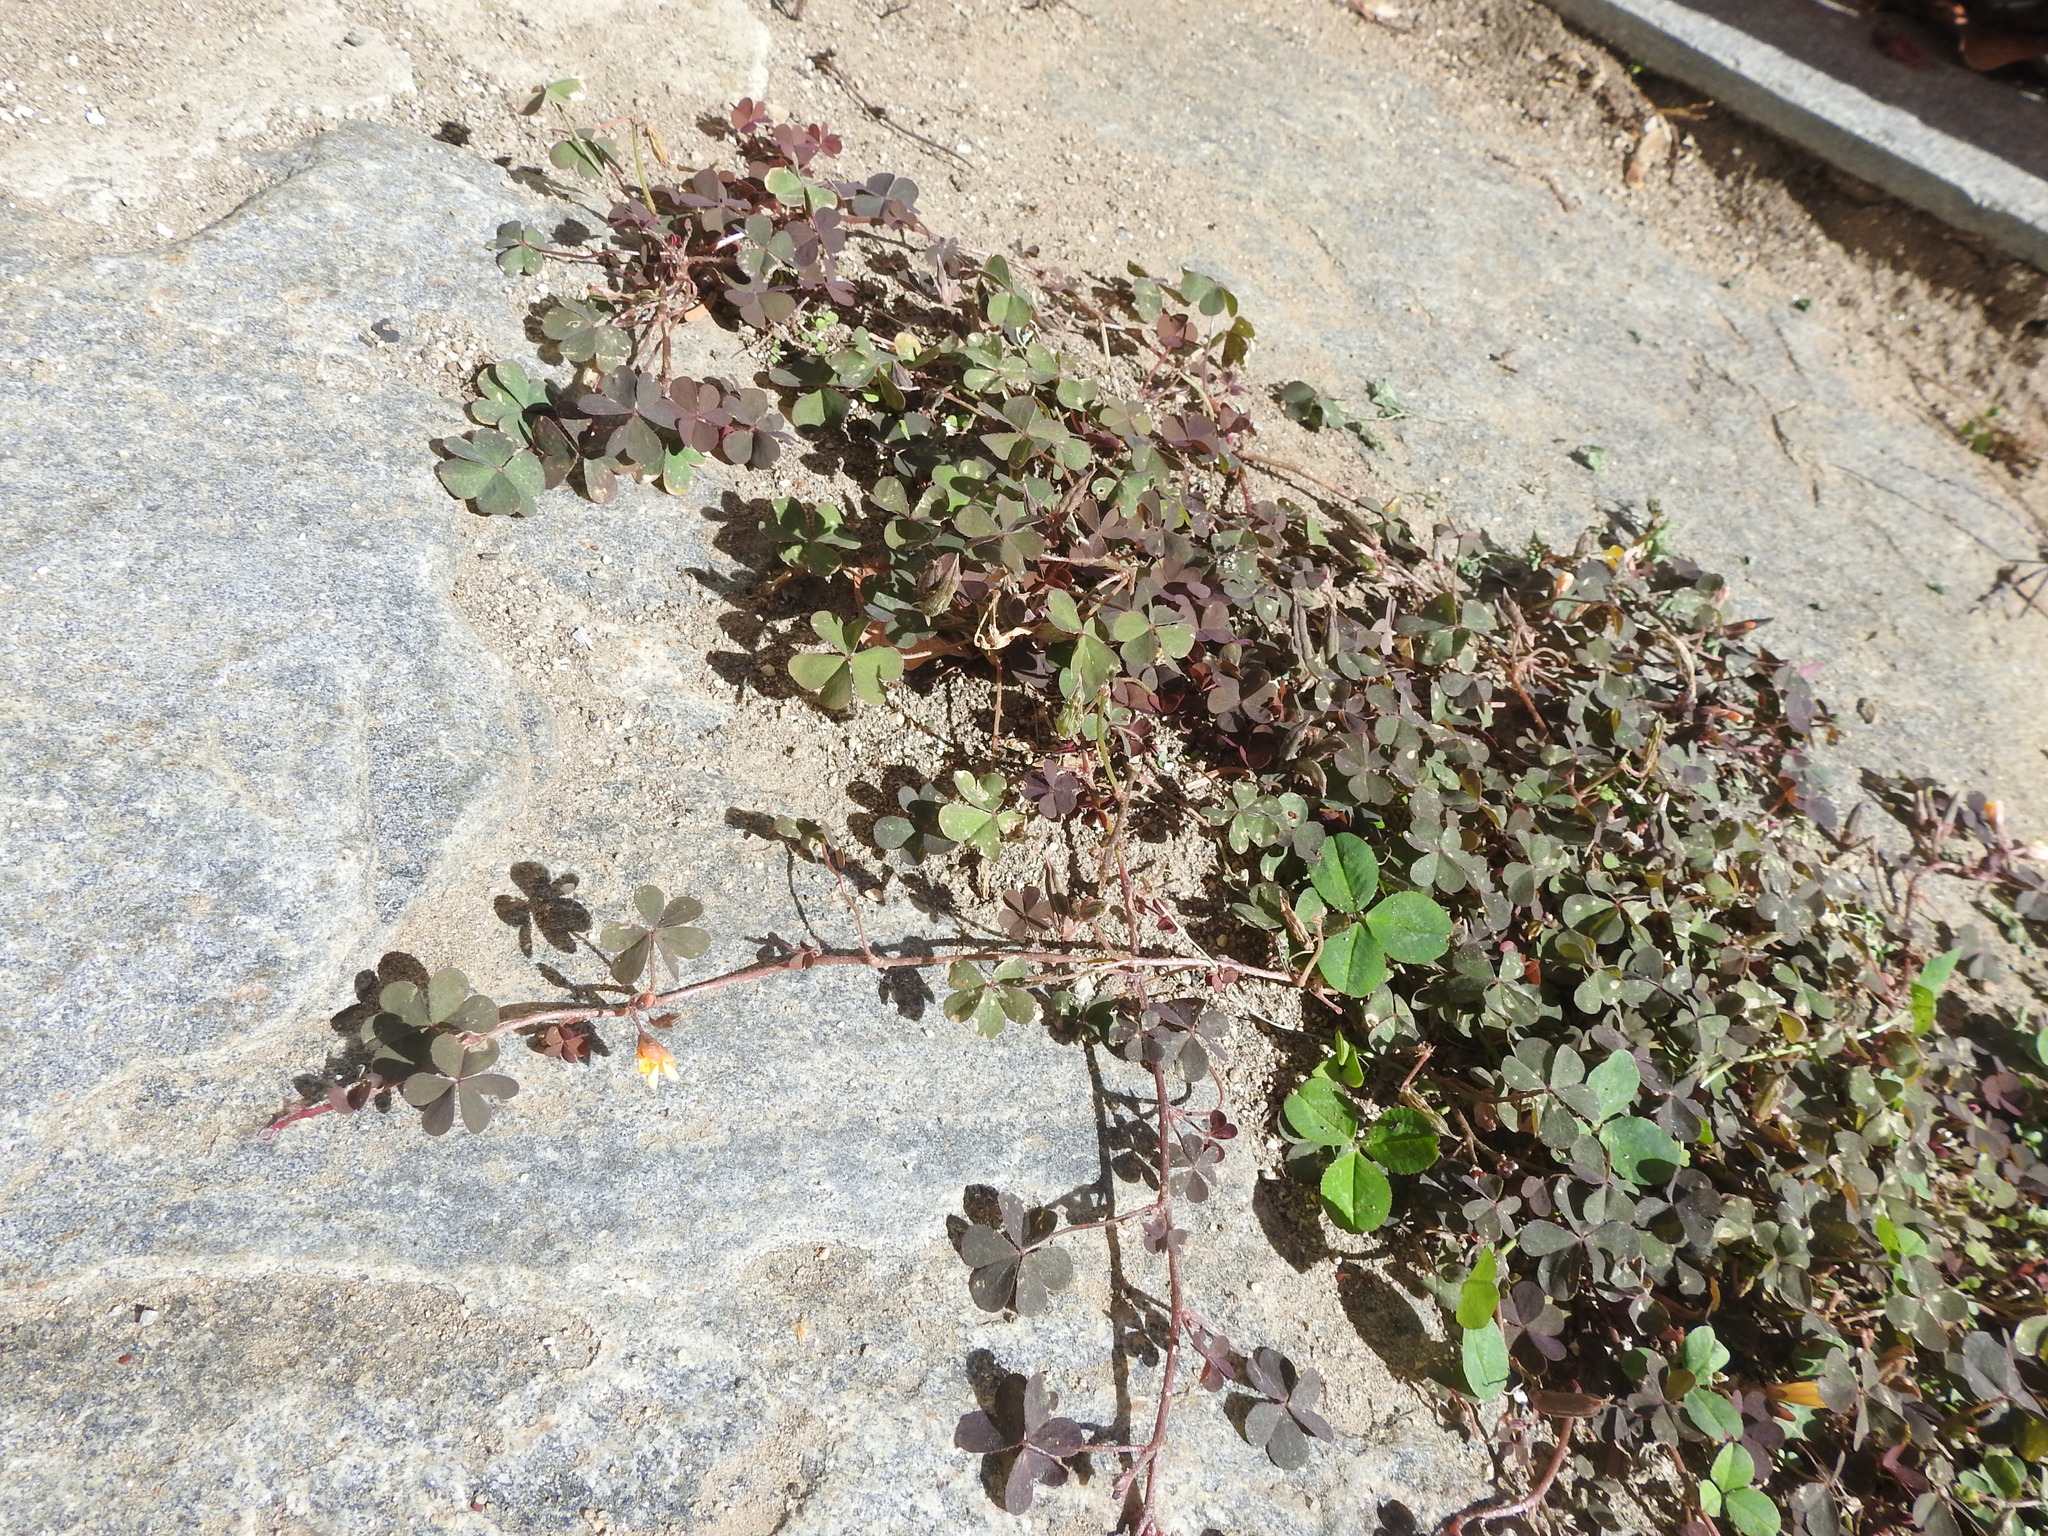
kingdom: Plantae
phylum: Tracheophyta
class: Magnoliopsida
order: Oxalidales
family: Oxalidaceae
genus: Oxalis
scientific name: Oxalis corniculata
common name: Procumbent yellow-sorrel
